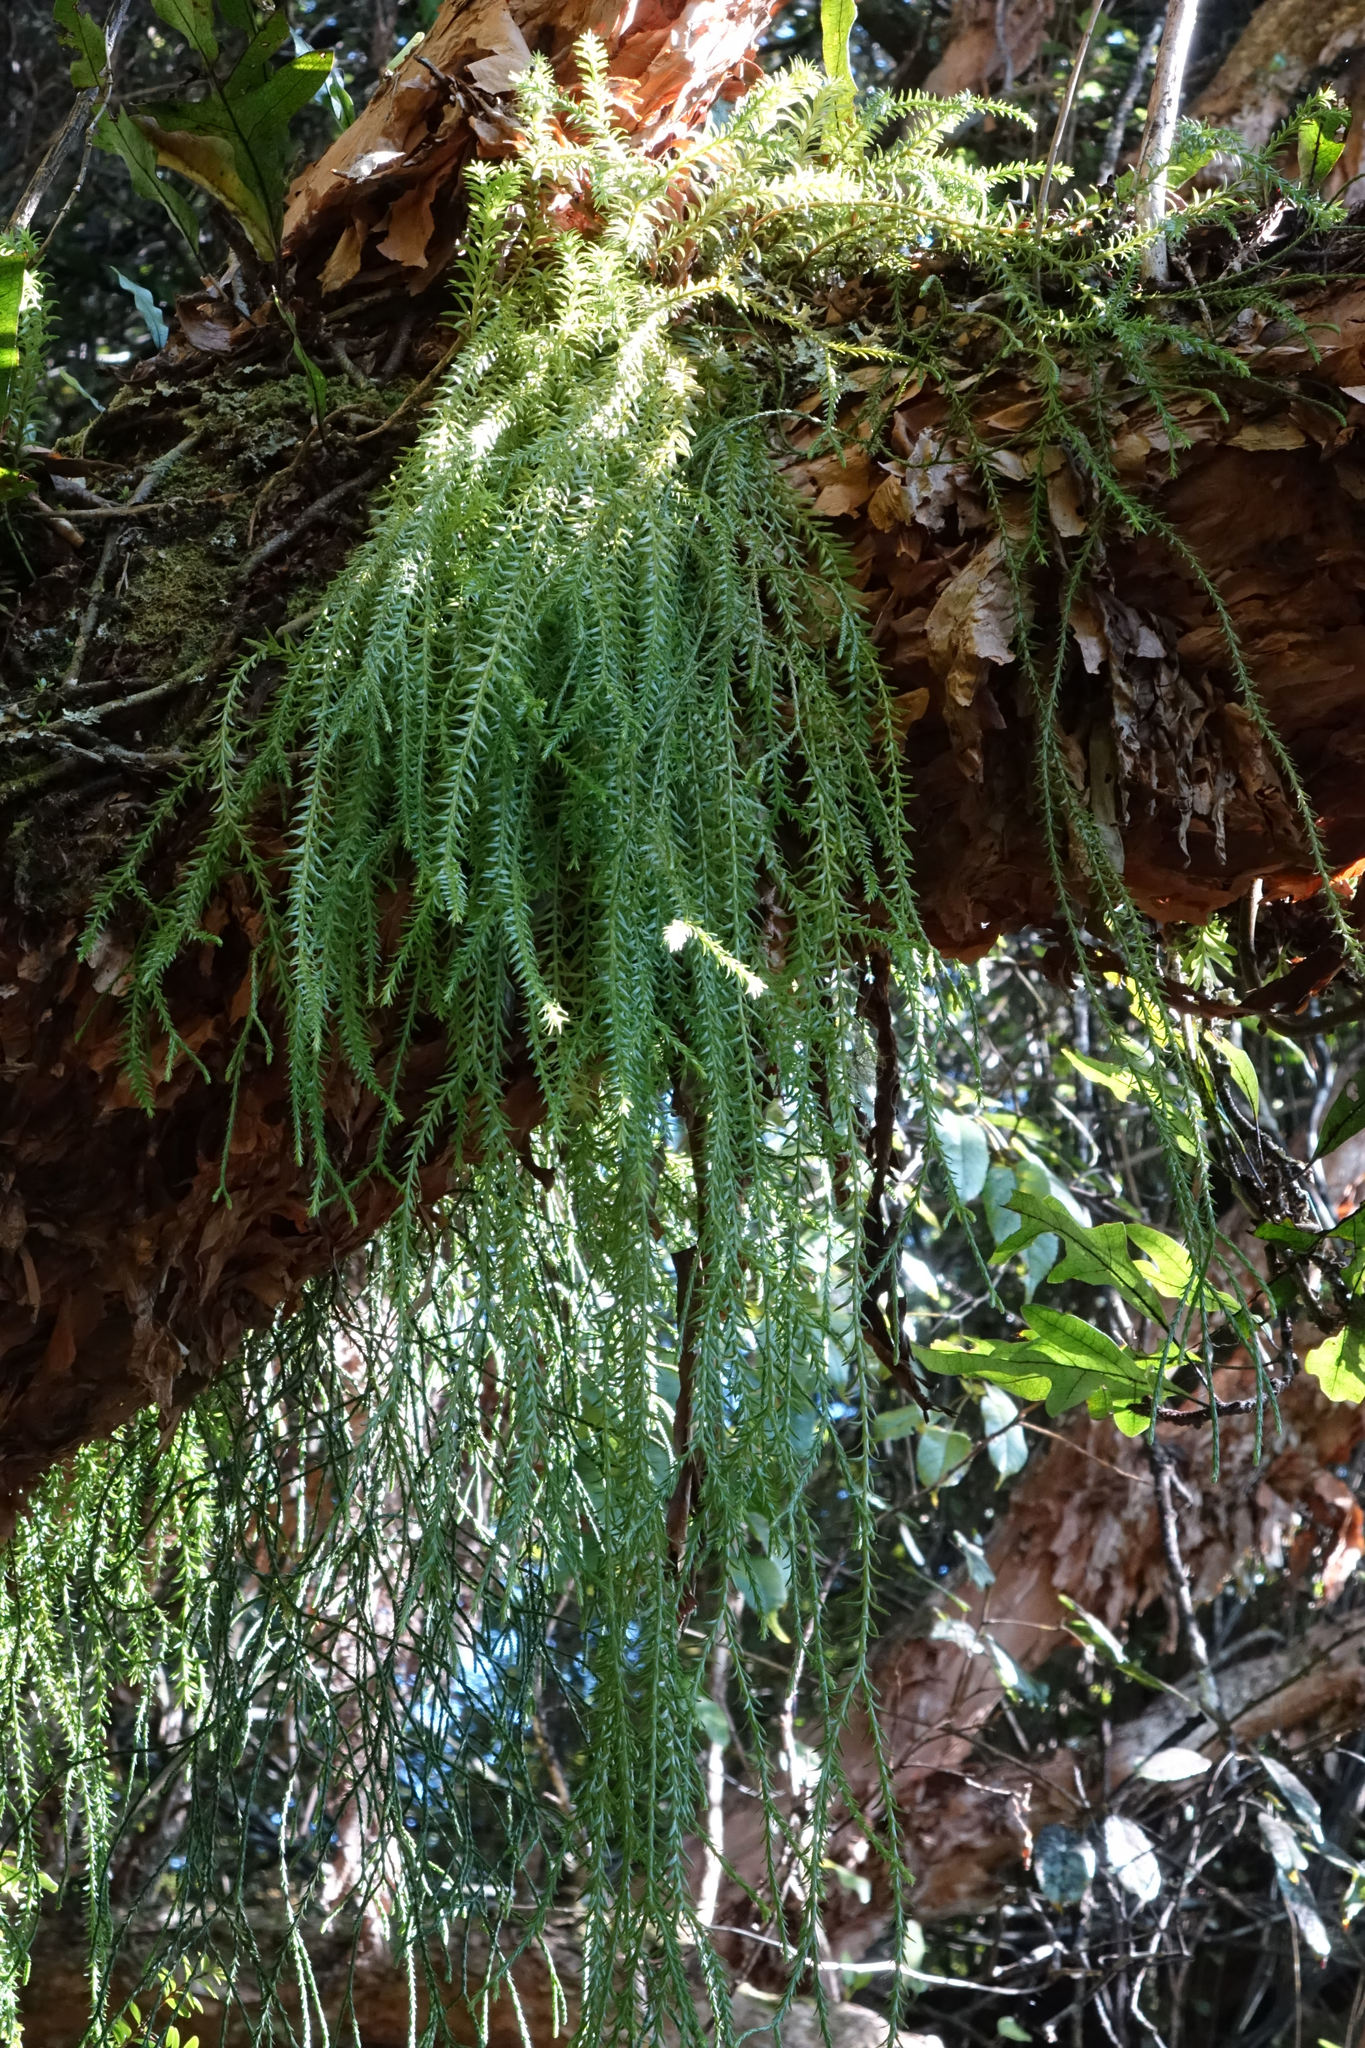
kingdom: Plantae
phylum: Tracheophyta
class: Lycopodiopsida
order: Lycopodiales
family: Lycopodiaceae
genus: Phlegmariurus
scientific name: Phlegmariurus varius
